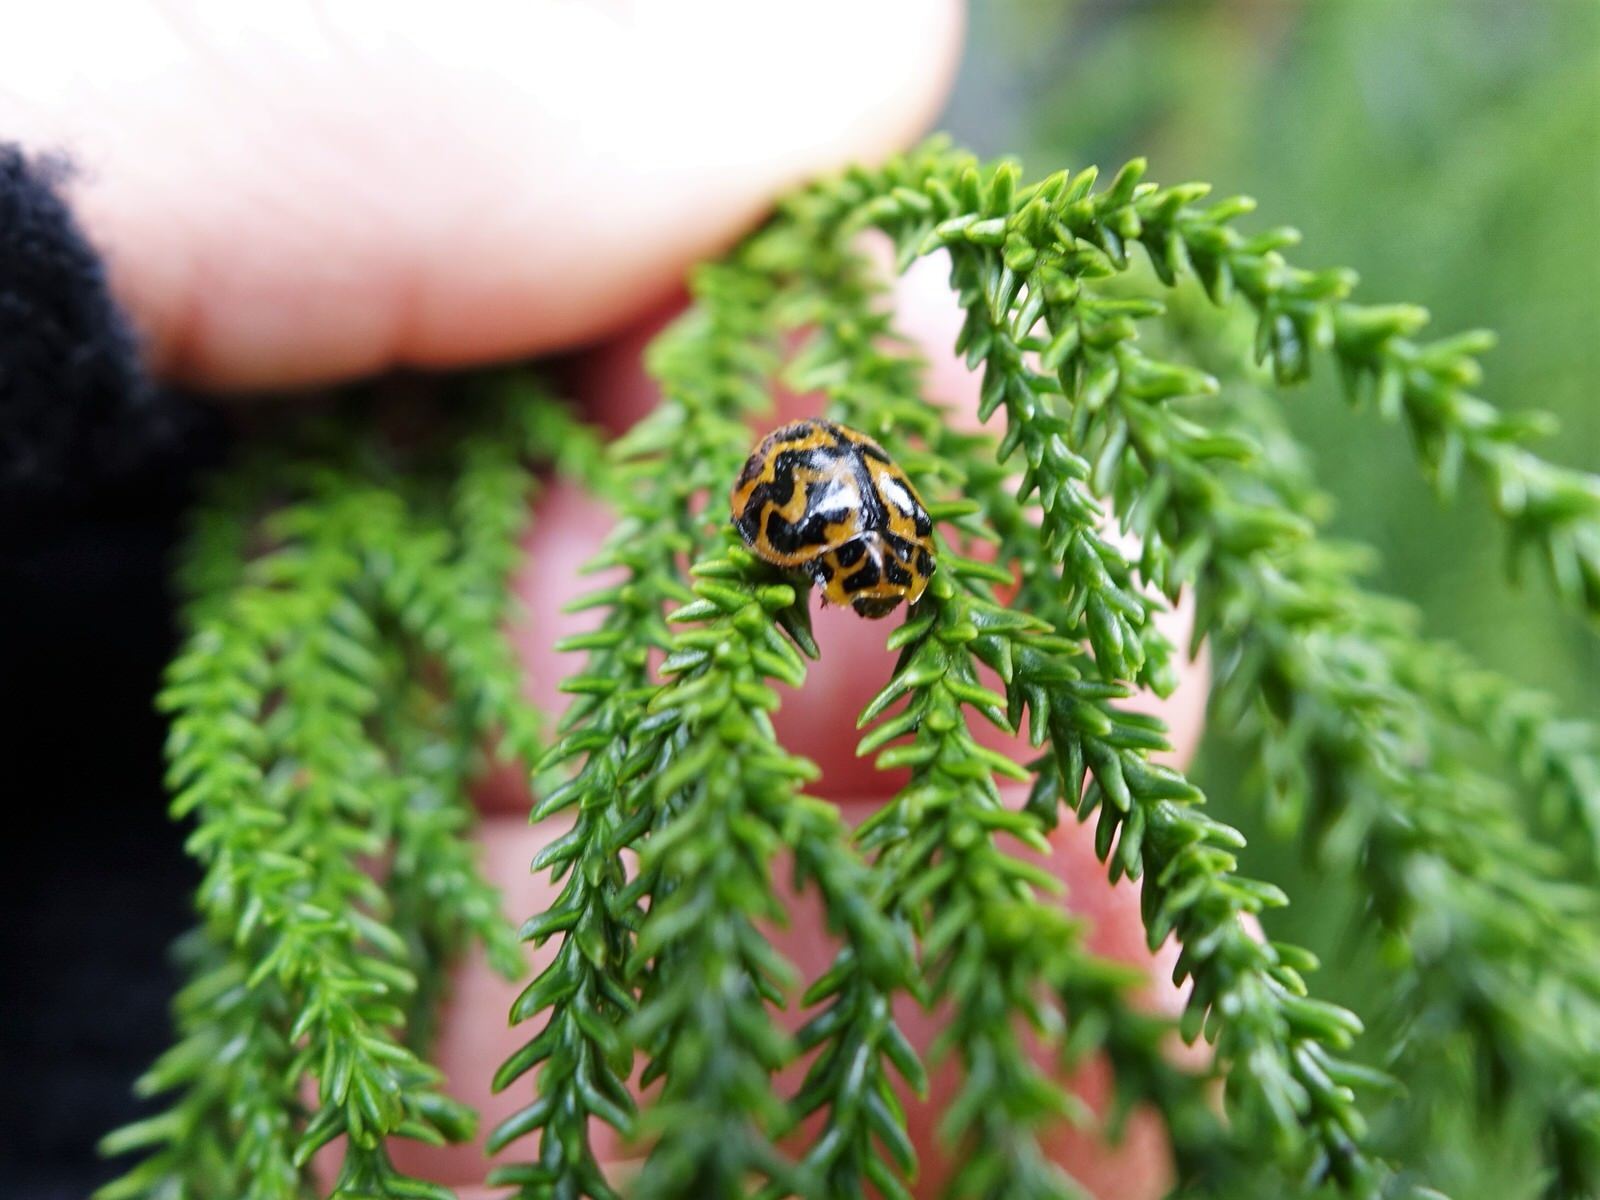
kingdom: Animalia
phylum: Arthropoda
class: Insecta
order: Coleoptera
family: Coccinellidae
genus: Cleobora
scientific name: Cleobora
